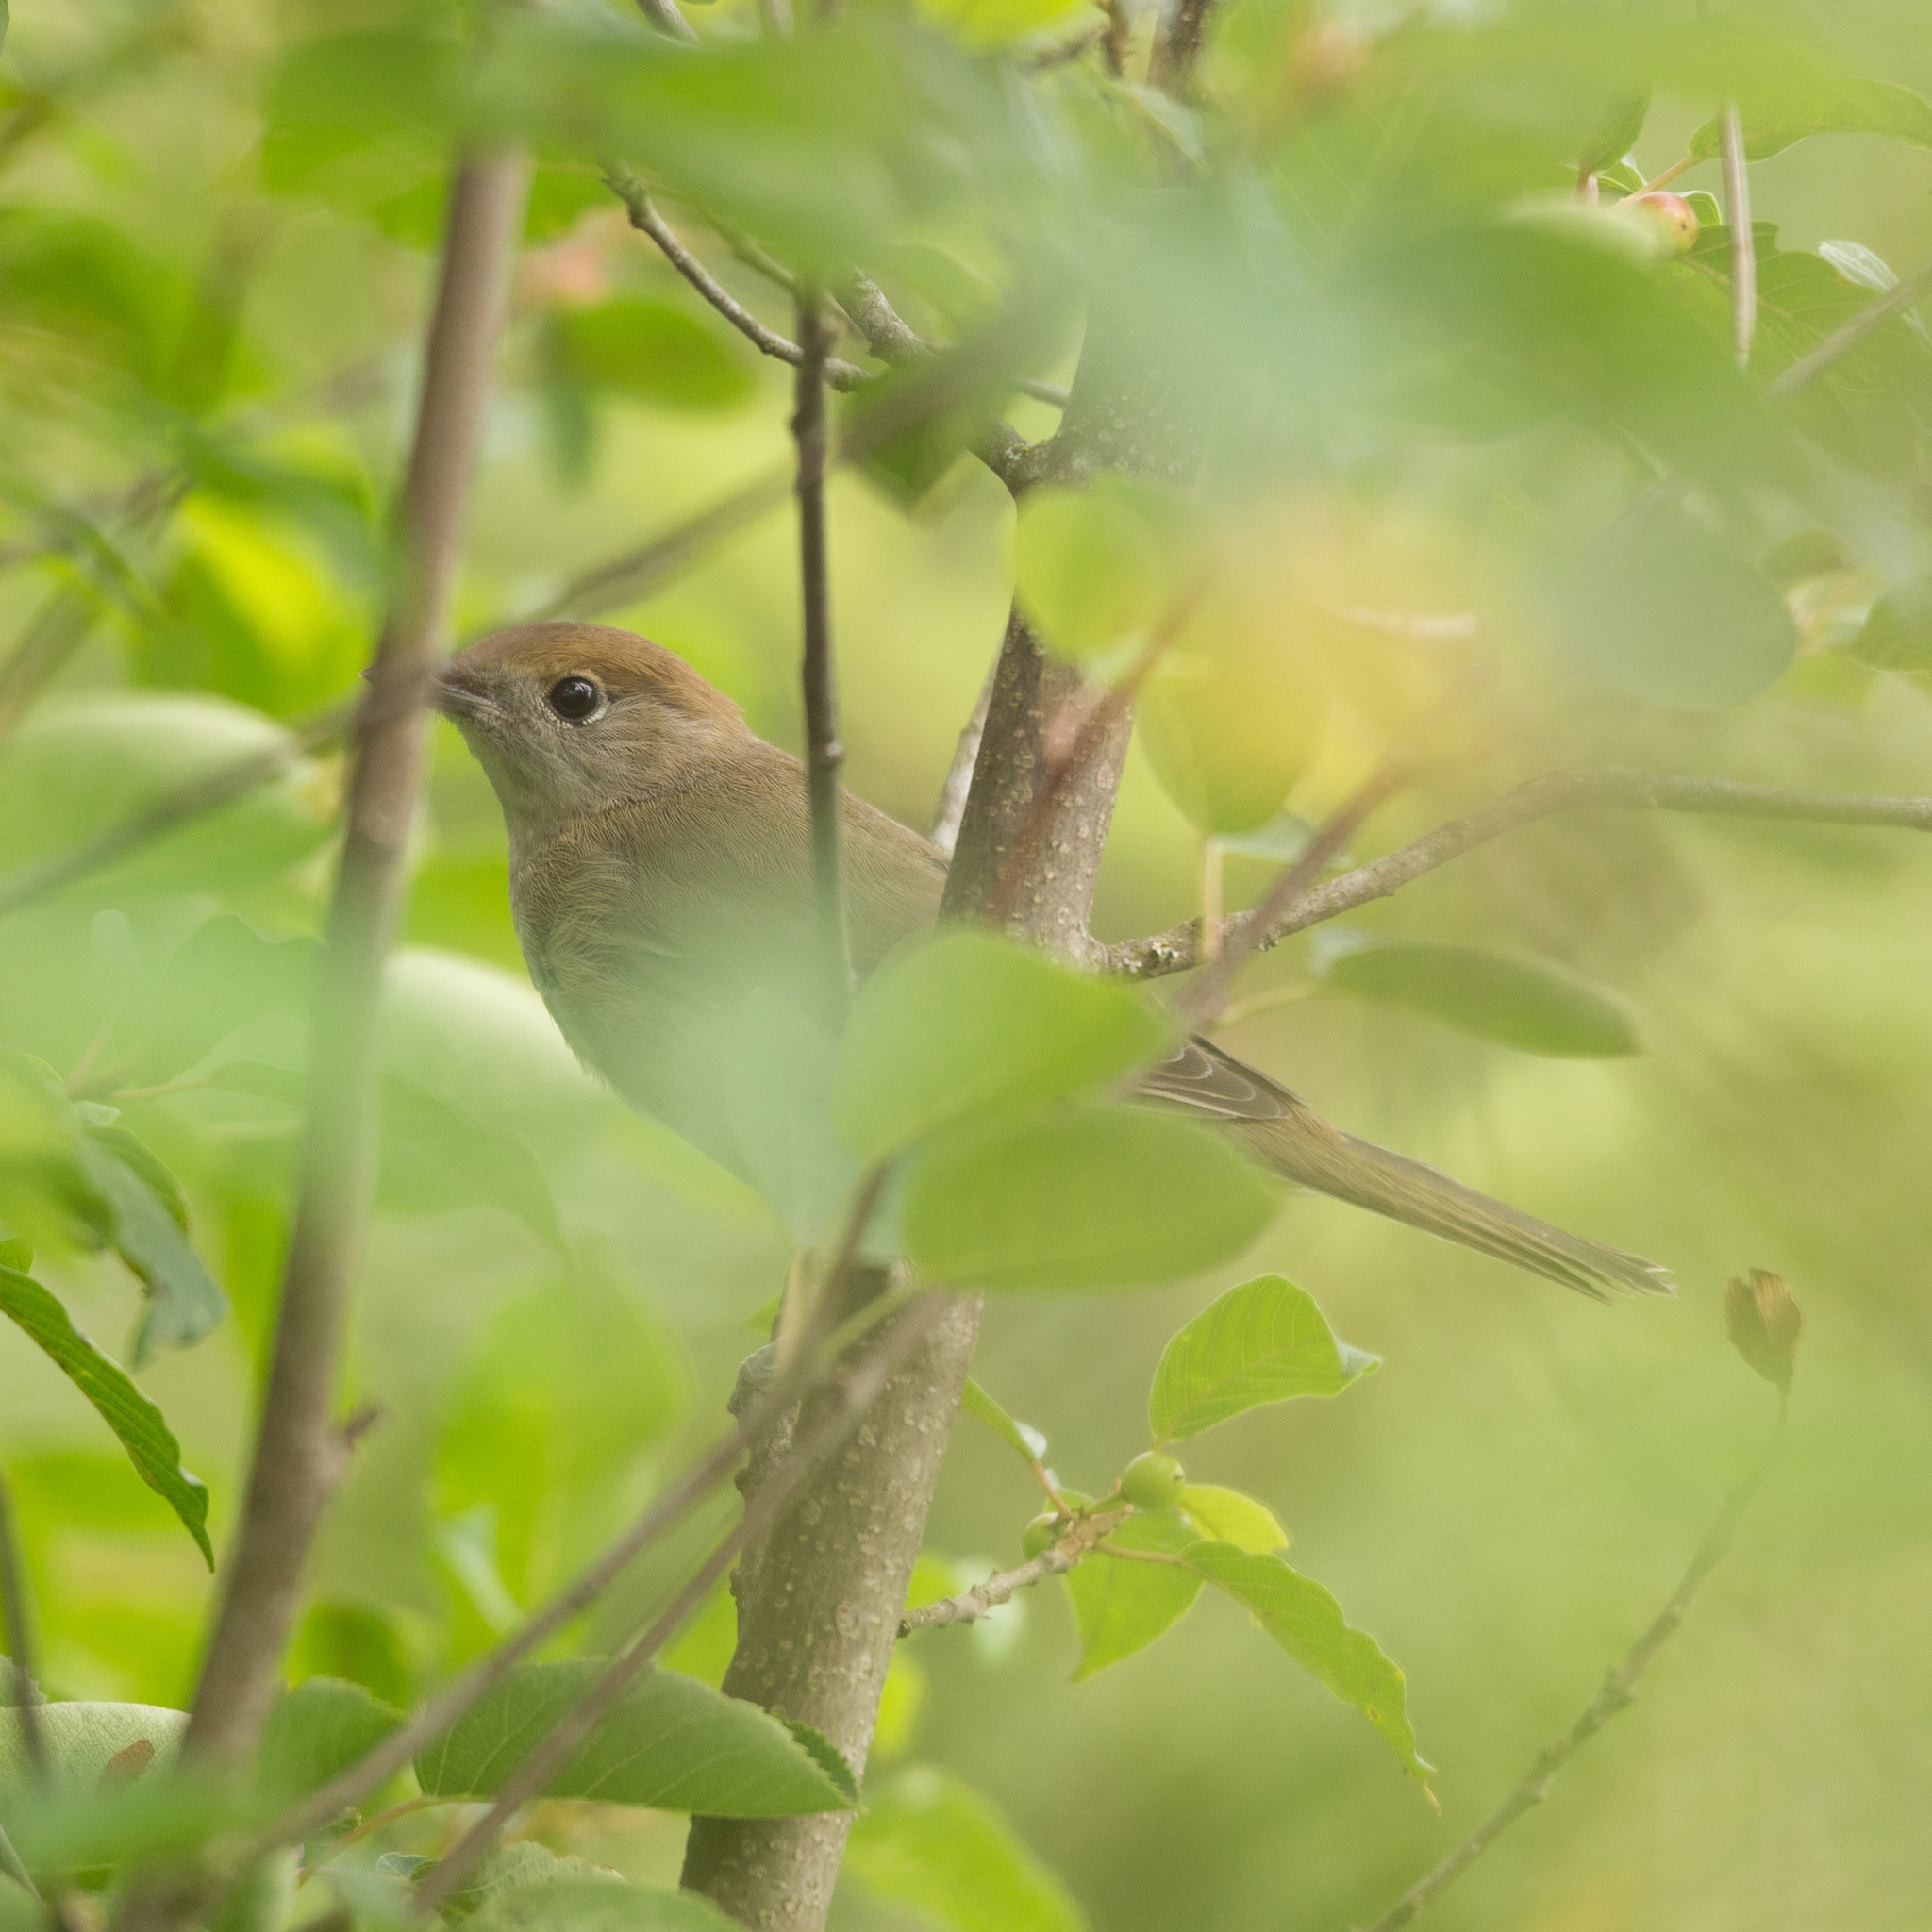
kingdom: Animalia
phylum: Chordata
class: Aves
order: Passeriformes
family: Sylviidae
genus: Sylvia
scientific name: Sylvia atricapilla
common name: Eurasian blackcap
